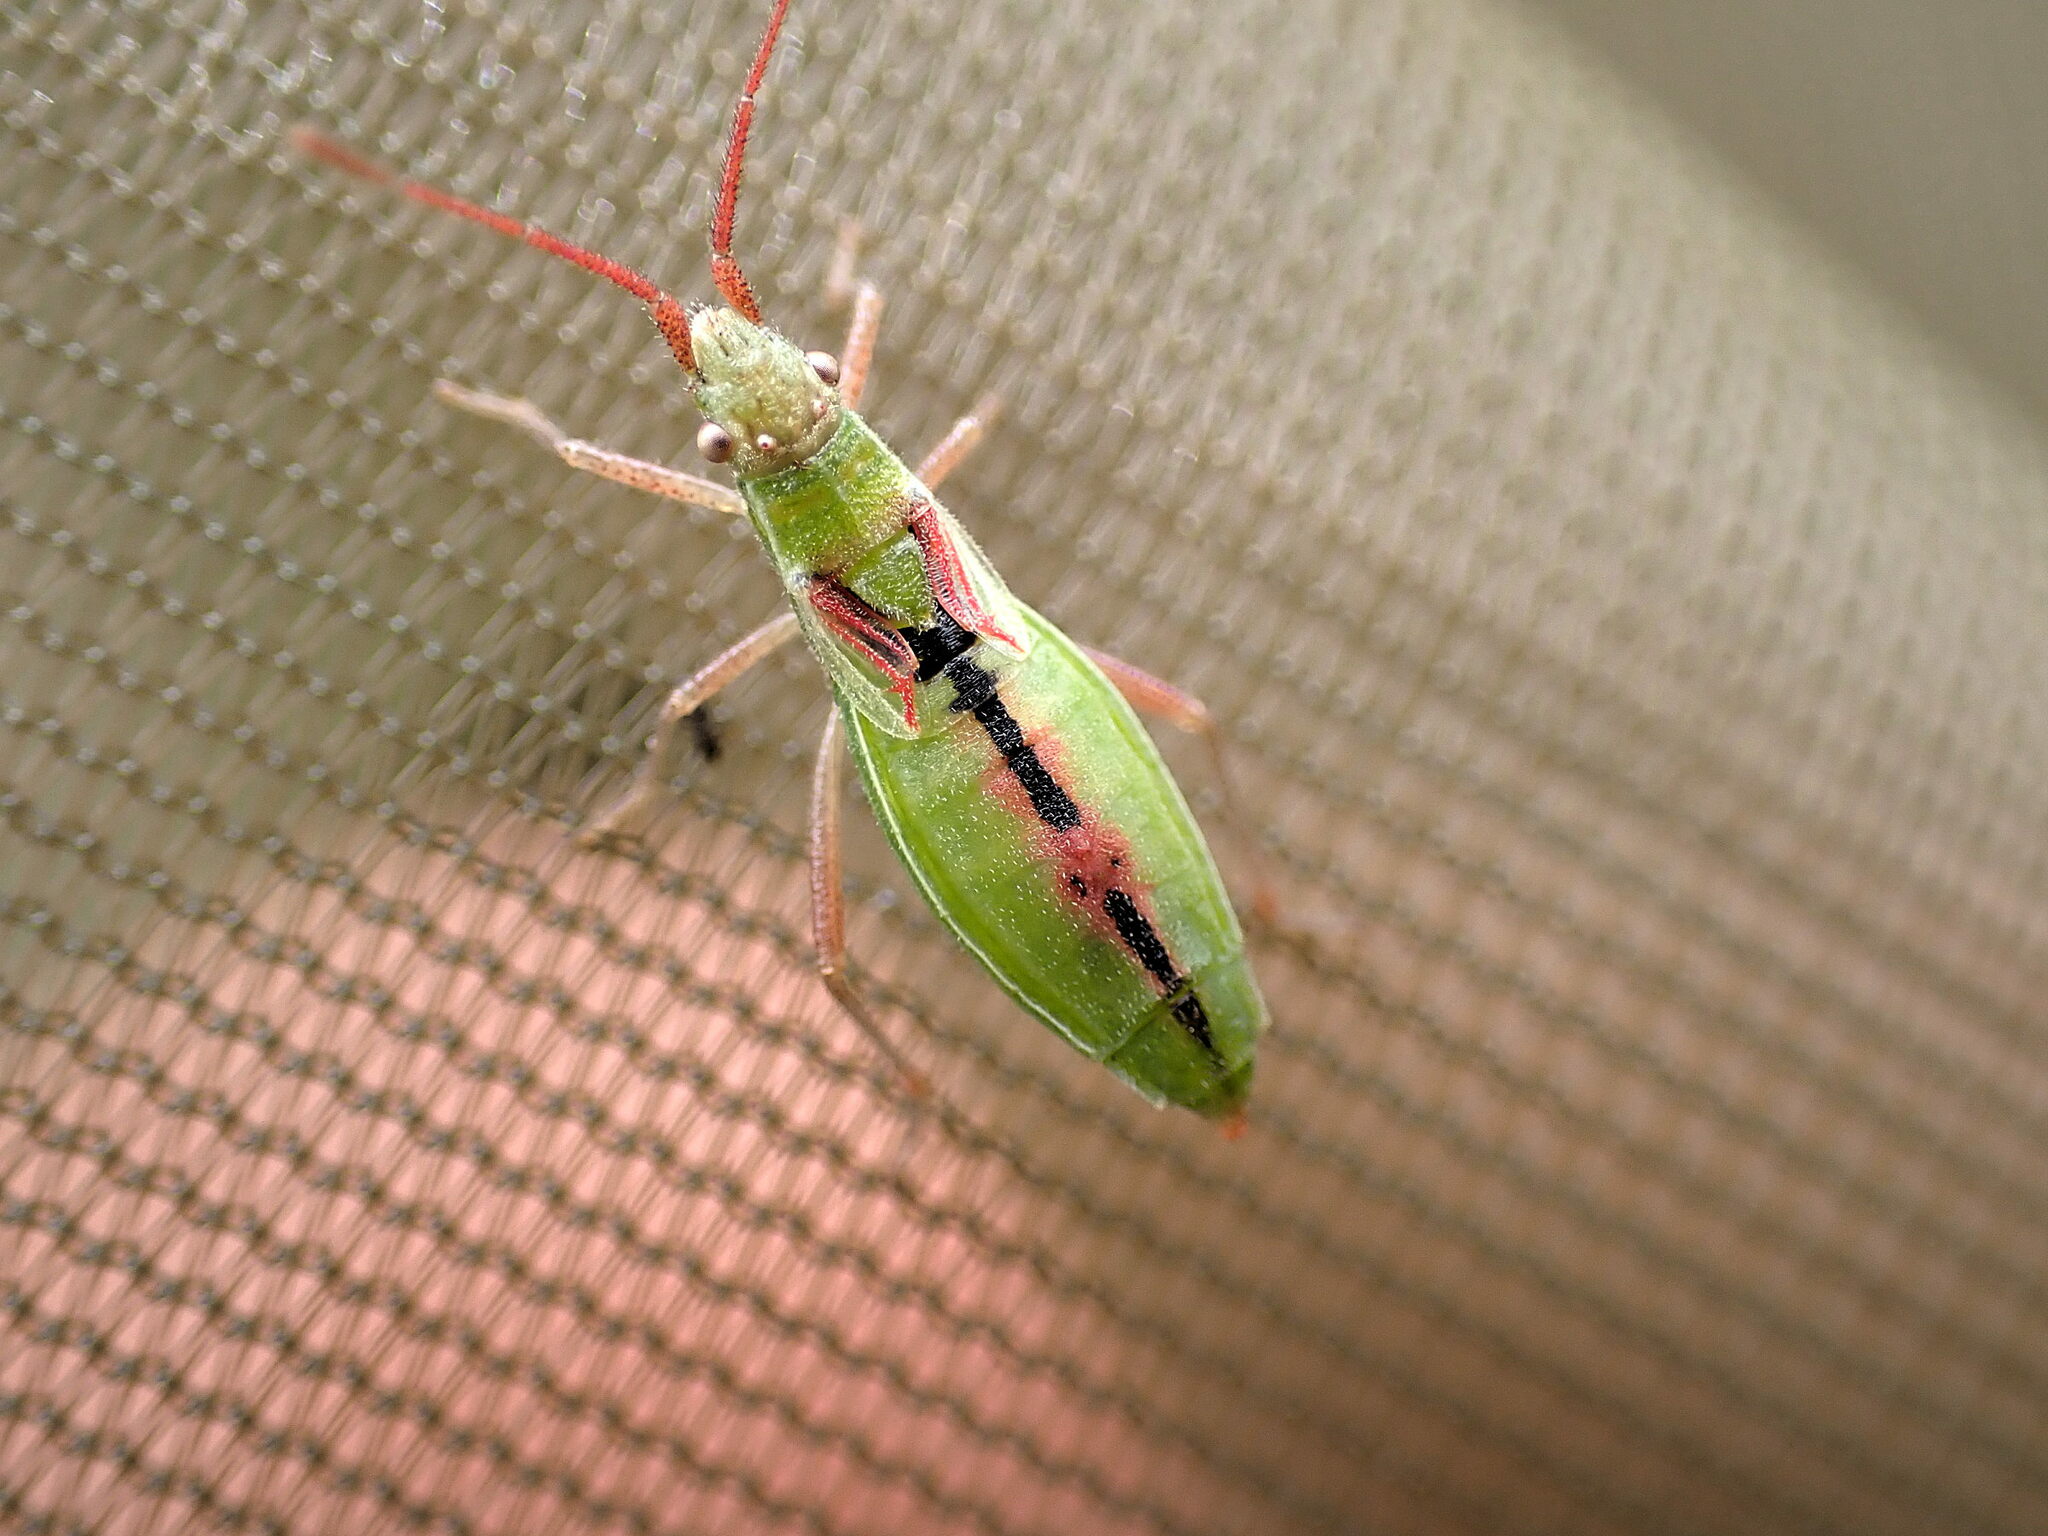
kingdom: Animalia
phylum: Arthropoda
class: Insecta
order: Hemiptera
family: Rhopalidae
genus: Myrmus
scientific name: Myrmus miriformis
